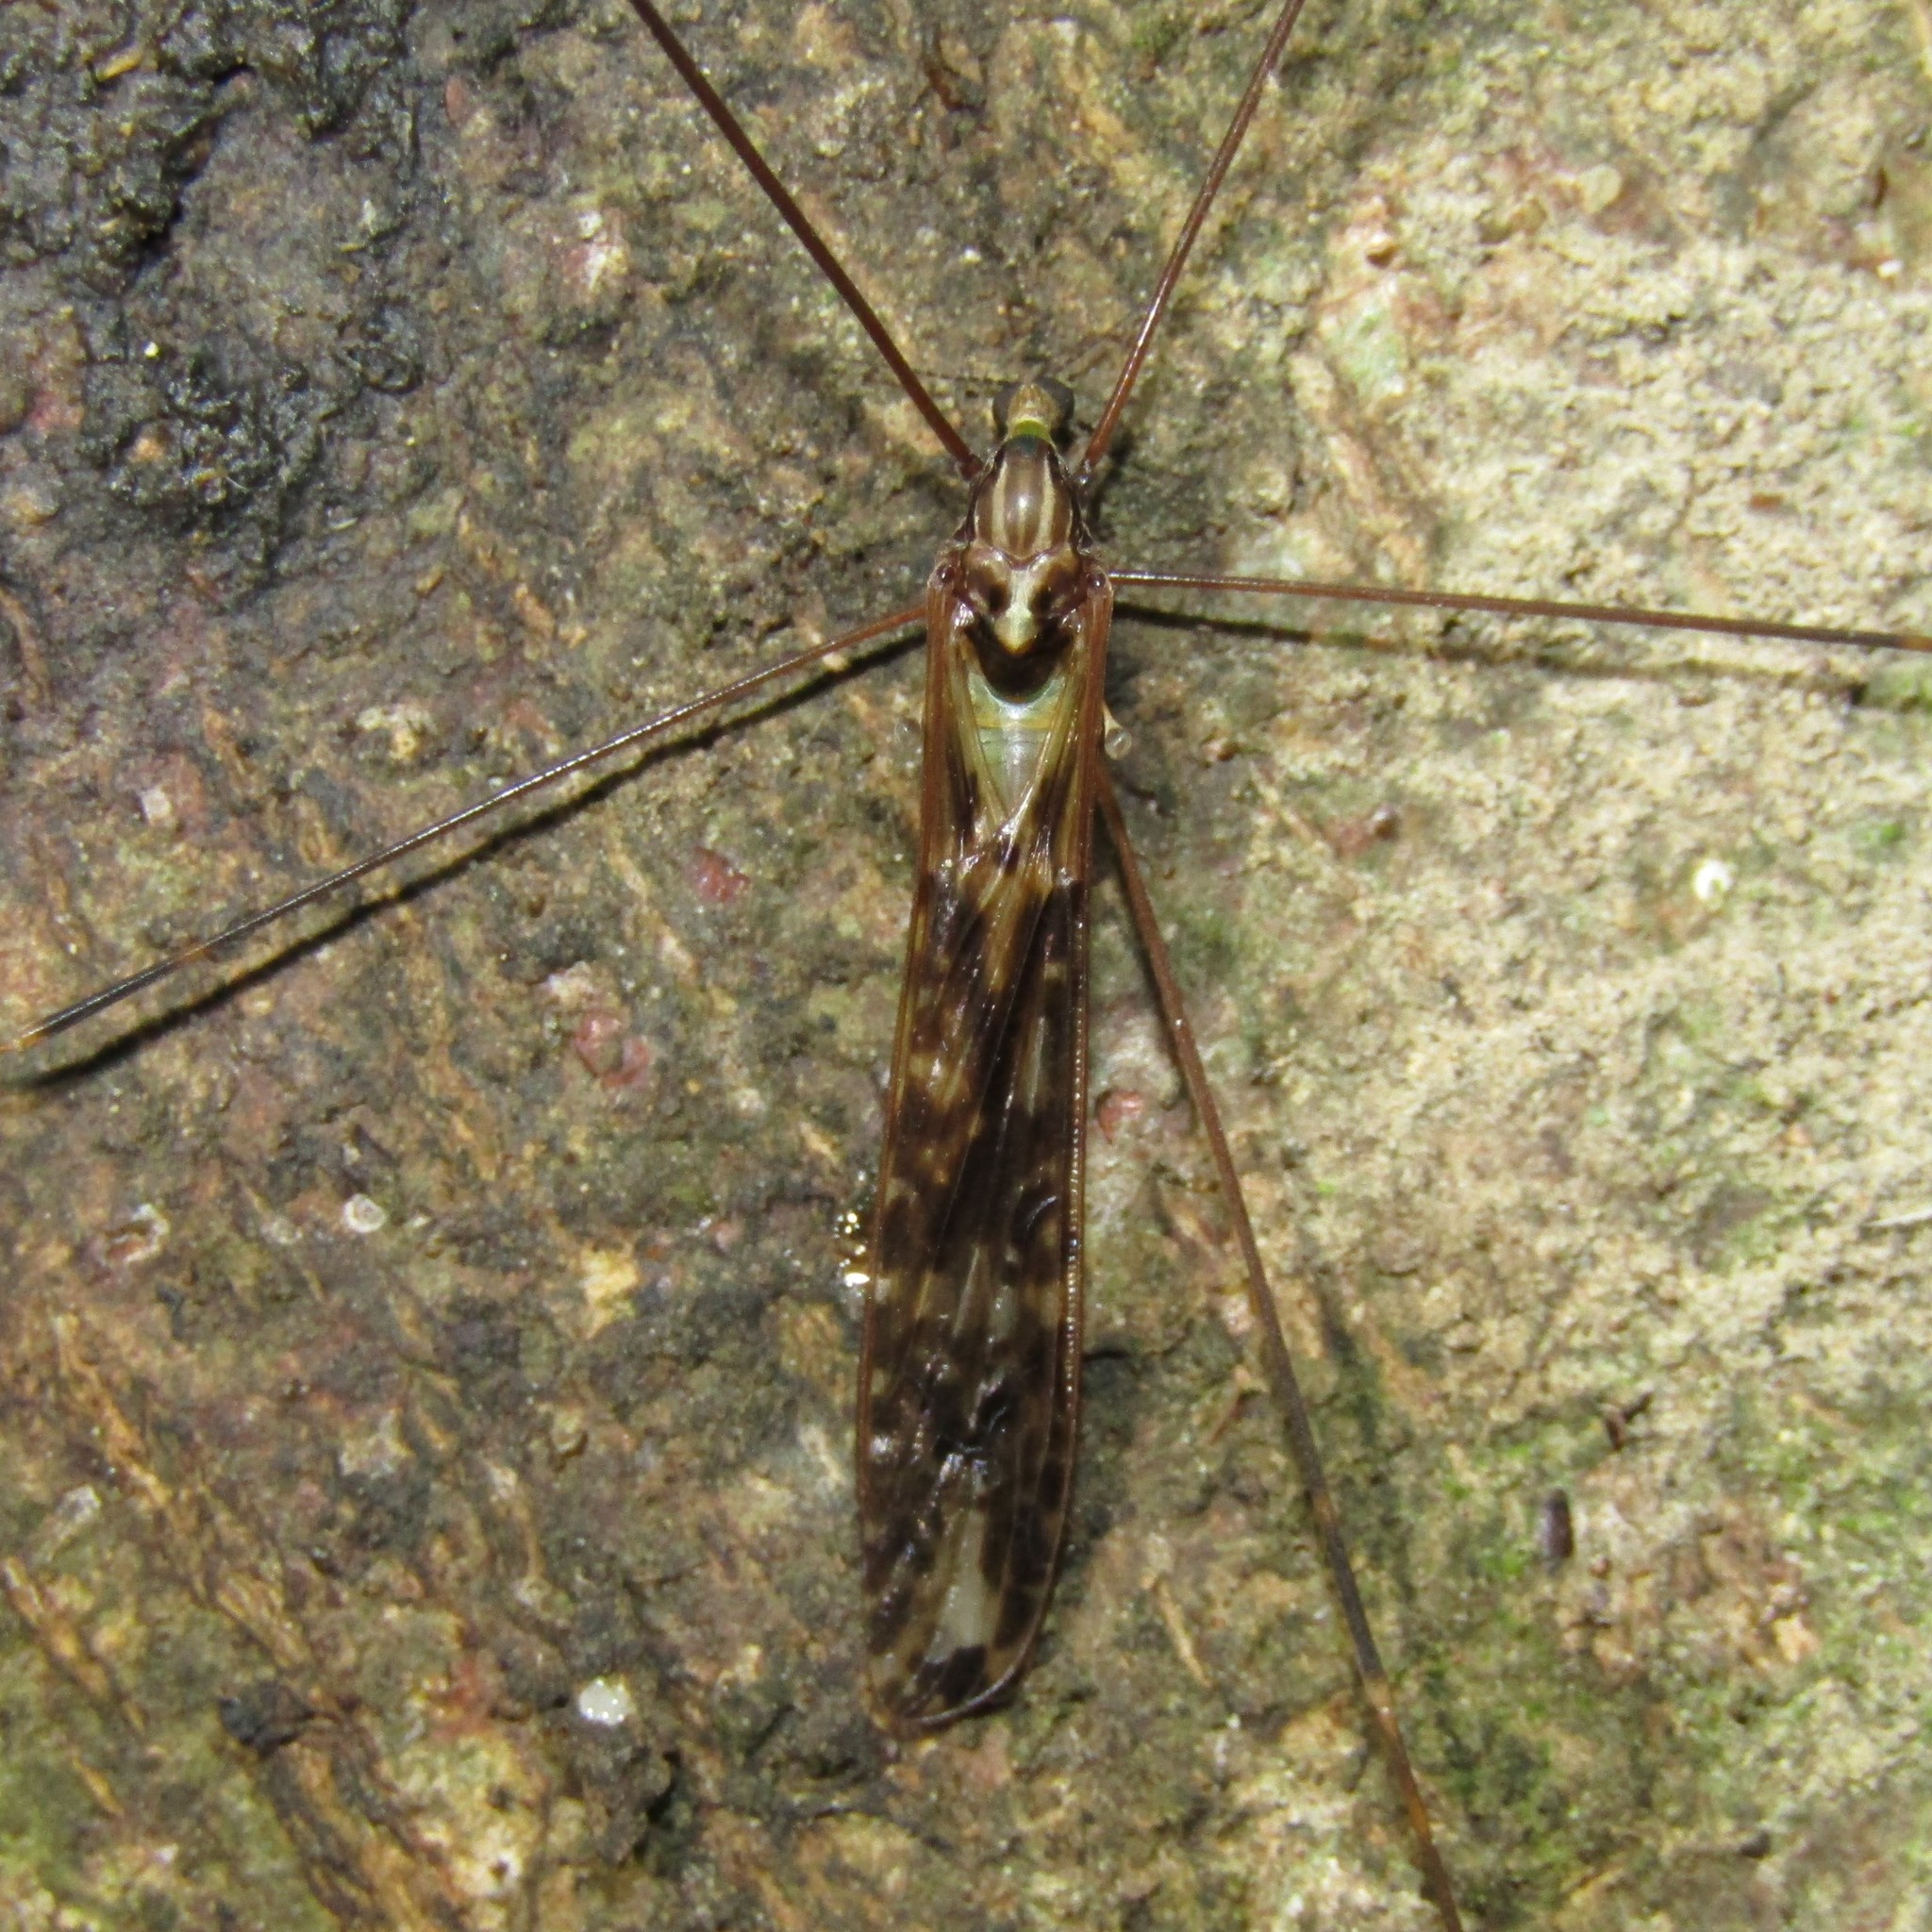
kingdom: Animalia
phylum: Arthropoda
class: Insecta
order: Diptera
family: Limoniidae
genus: Discobola
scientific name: Discobola dohrni
